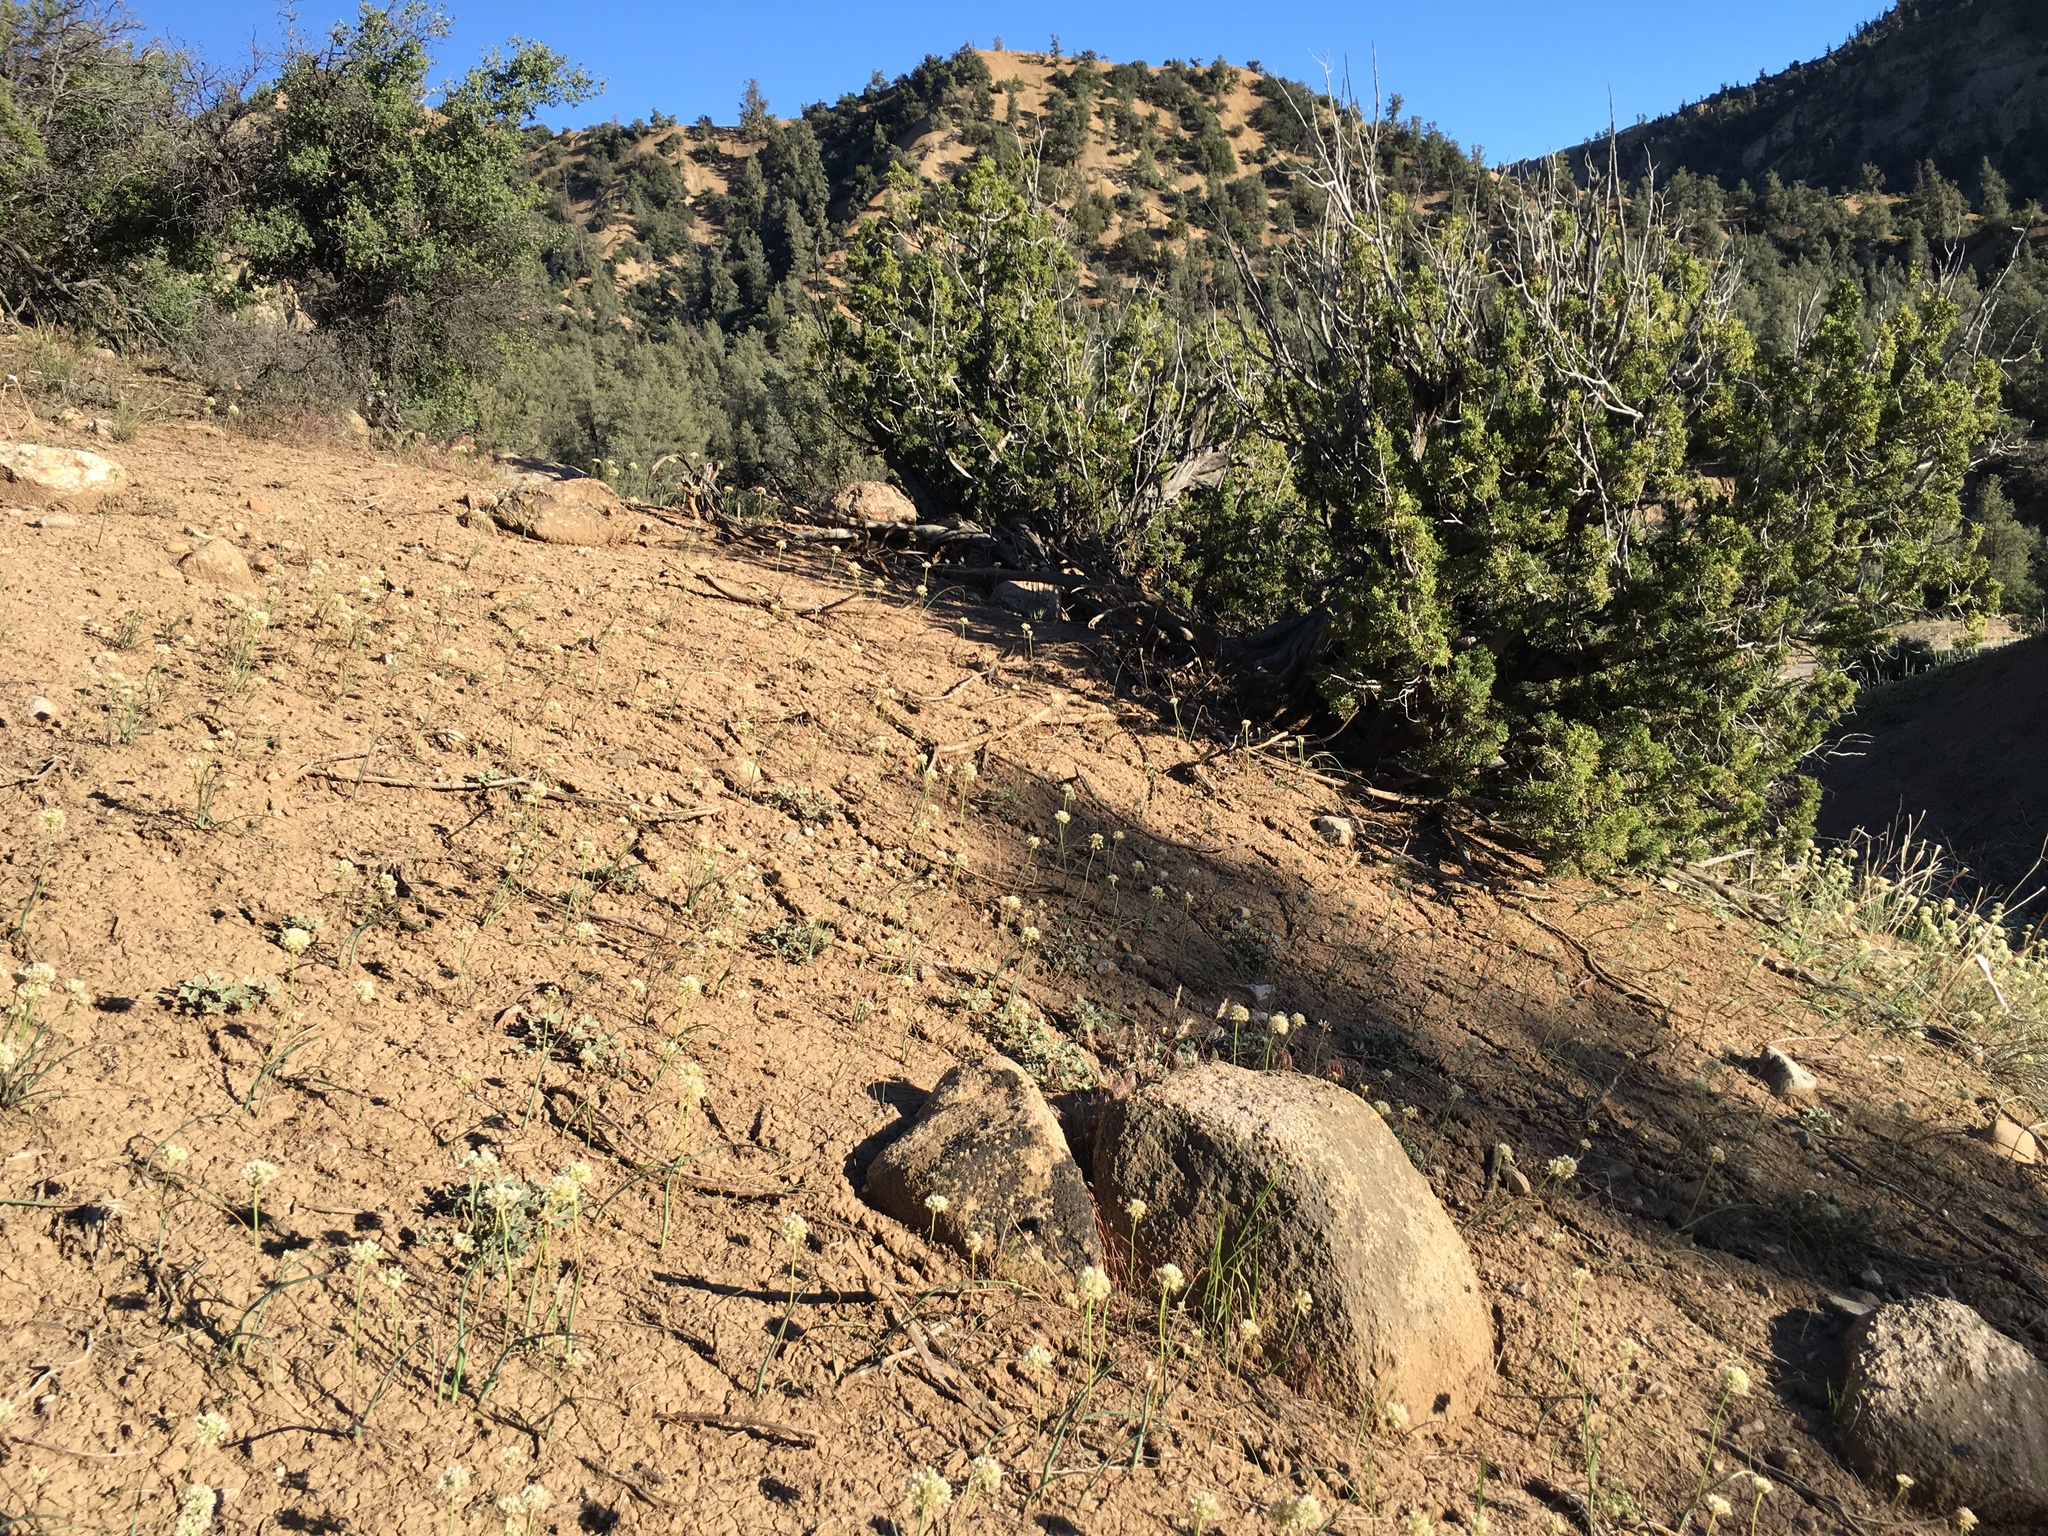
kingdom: Plantae
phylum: Tracheophyta
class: Liliopsida
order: Asparagales
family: Amaryllidaceae
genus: Allium
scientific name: Allium howellii
